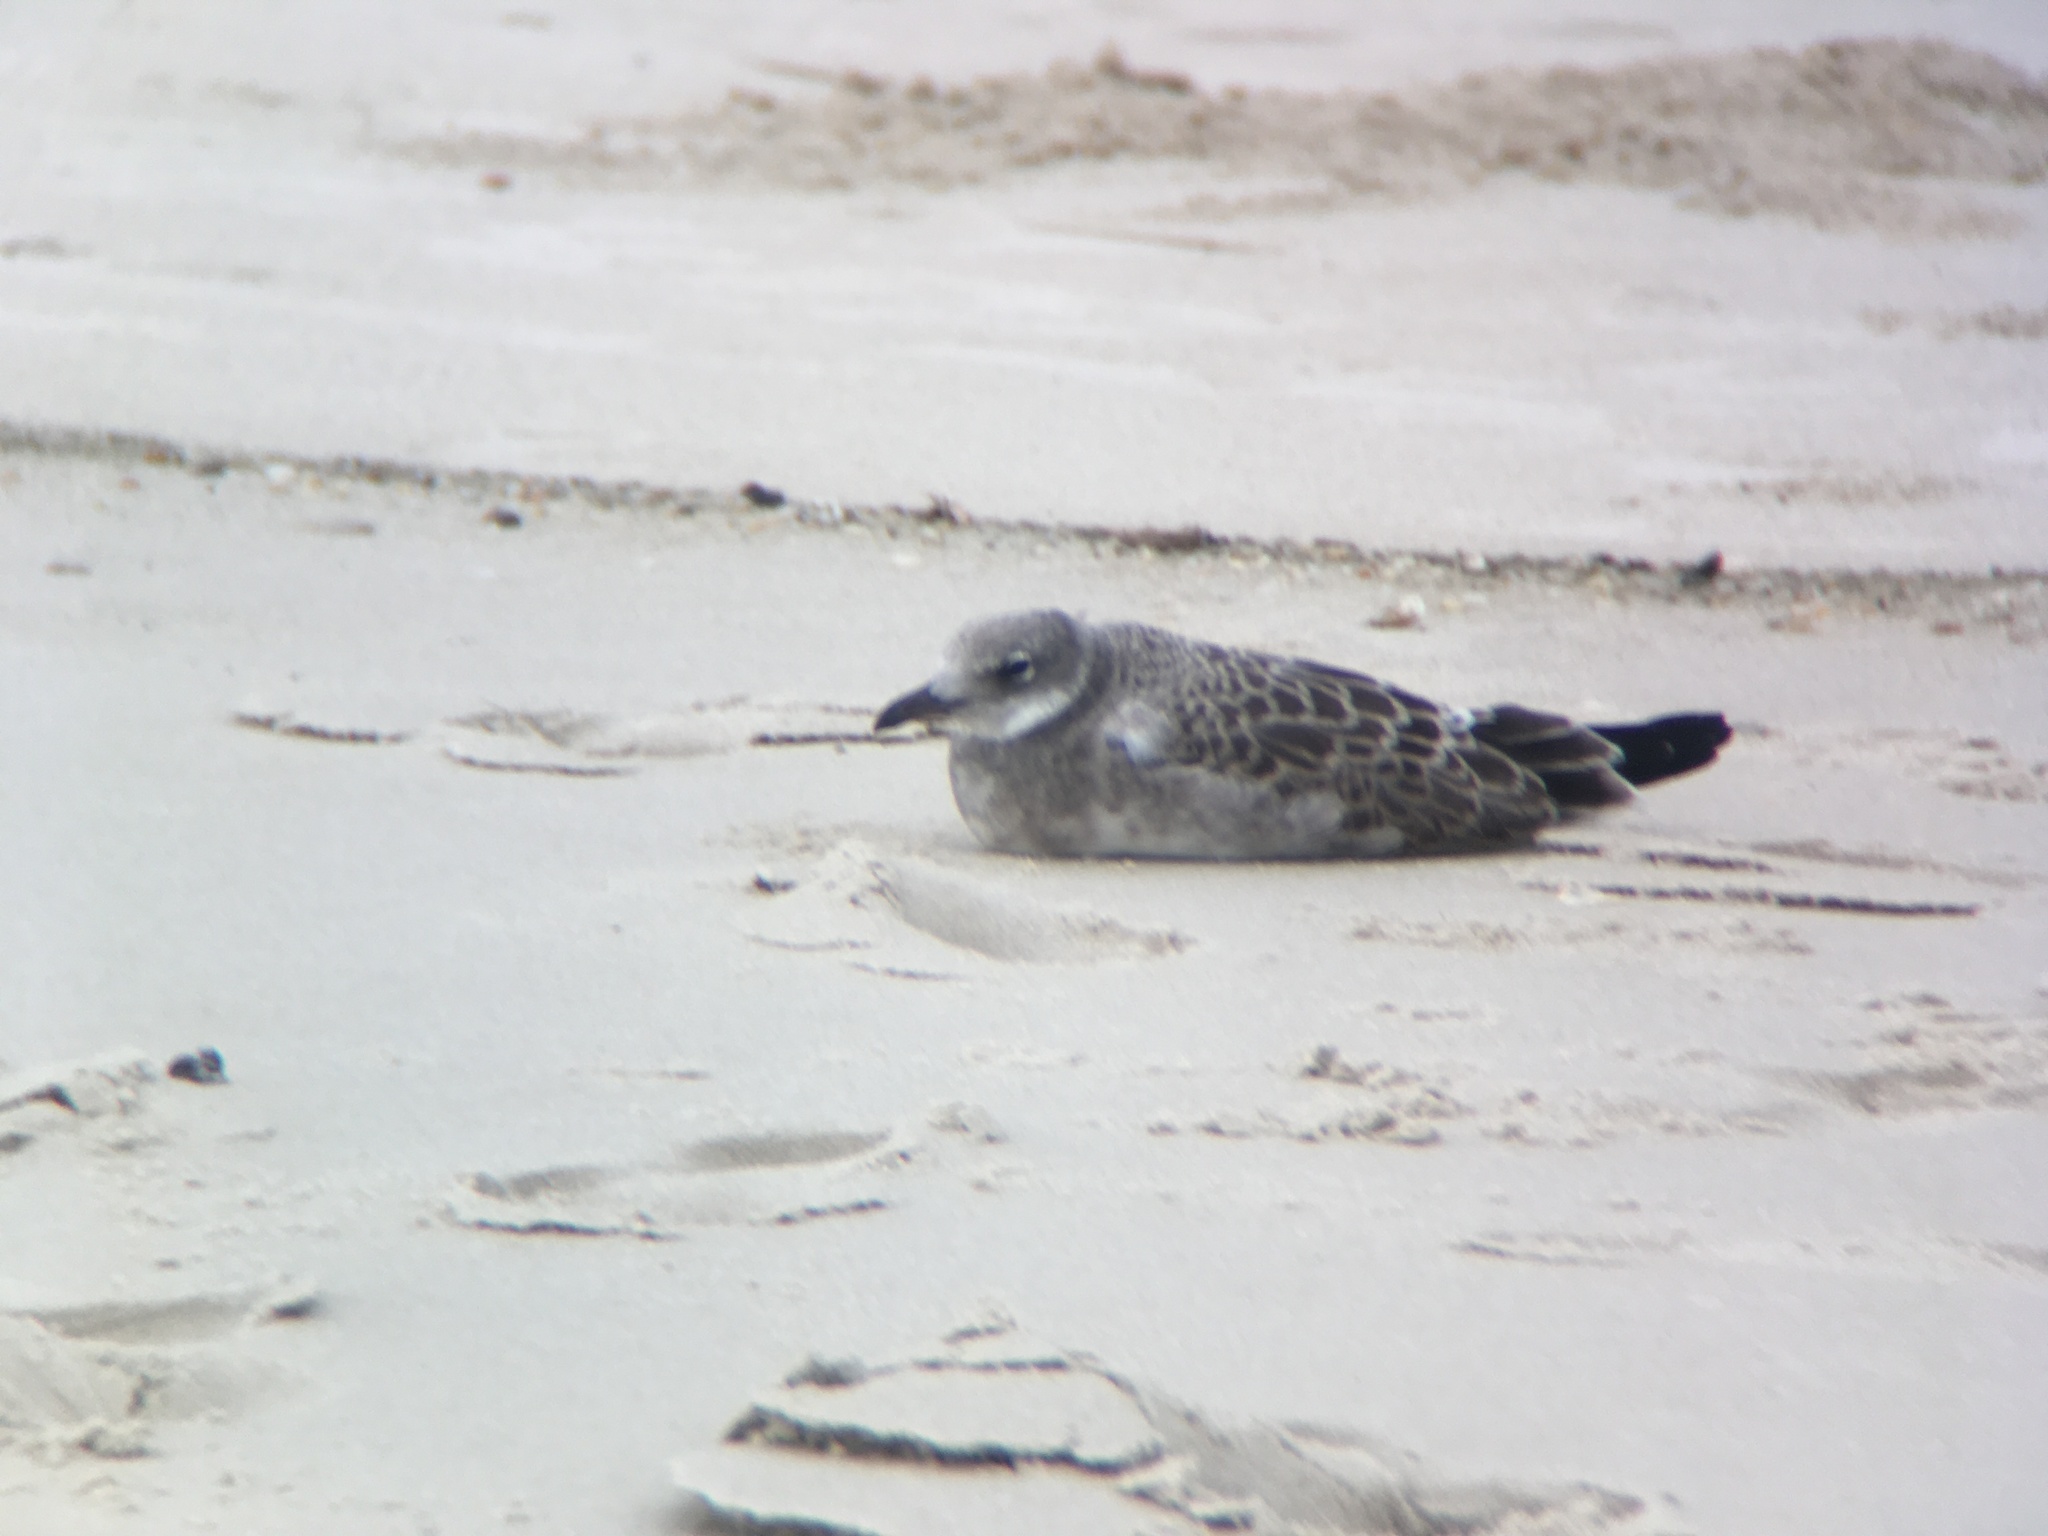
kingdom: Animalia
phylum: Chordata
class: Aves
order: Charadriiformes
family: Laridae
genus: Leucophaeus
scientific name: Leucophaeus atricilla
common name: Laughing gull
